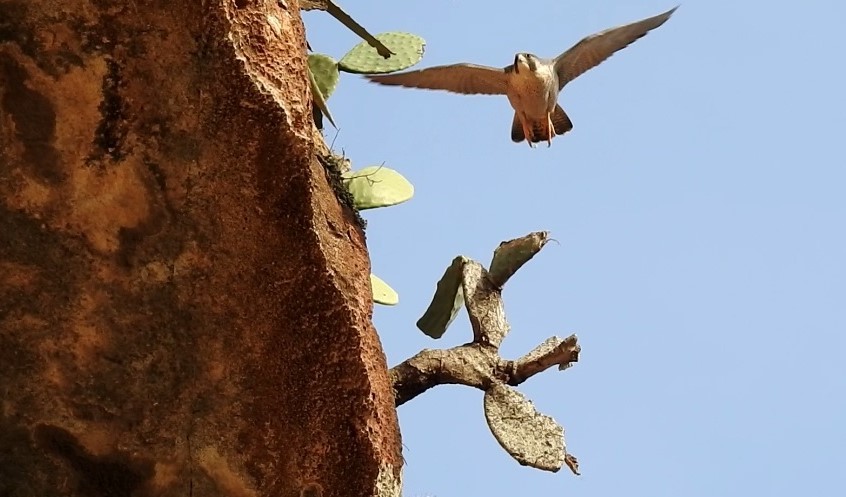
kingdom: Animalia
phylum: Chordata
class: Aves
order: Falconiformes
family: Falconidae
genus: Falco
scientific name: Falco peregrinus
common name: Peregrine falcon
